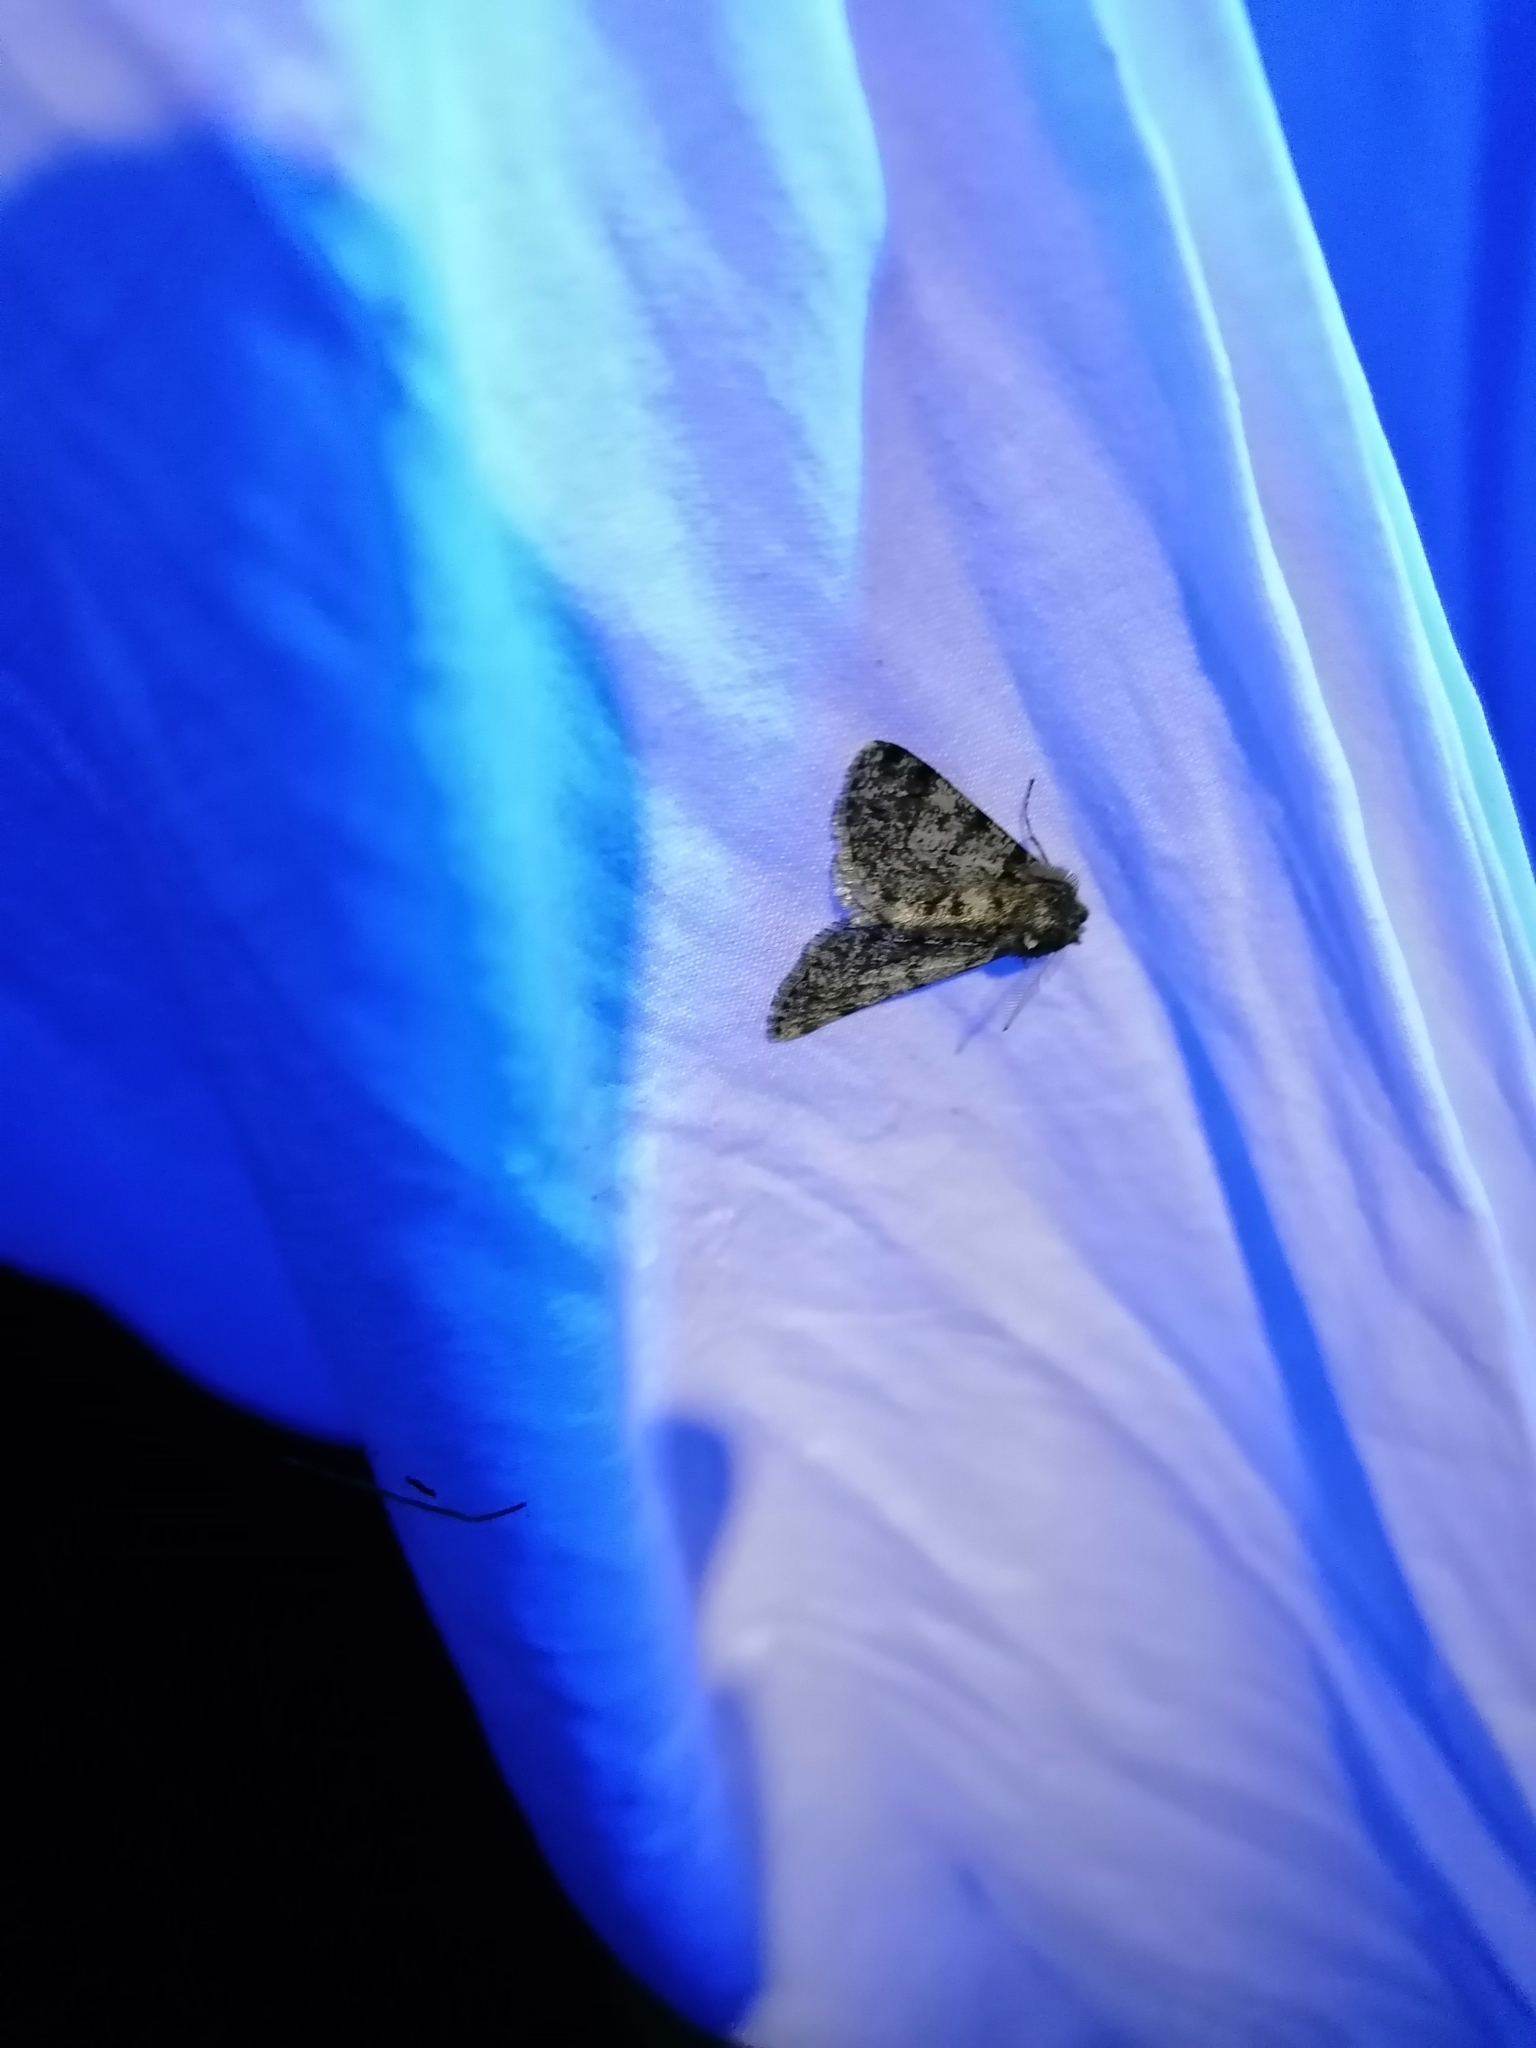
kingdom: Animalia
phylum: Arthropoda
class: Insecta
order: Lepidoptera
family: Geometridae
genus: Phigalia
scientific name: Phigalia pilosaria
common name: Pale brindled beauty
